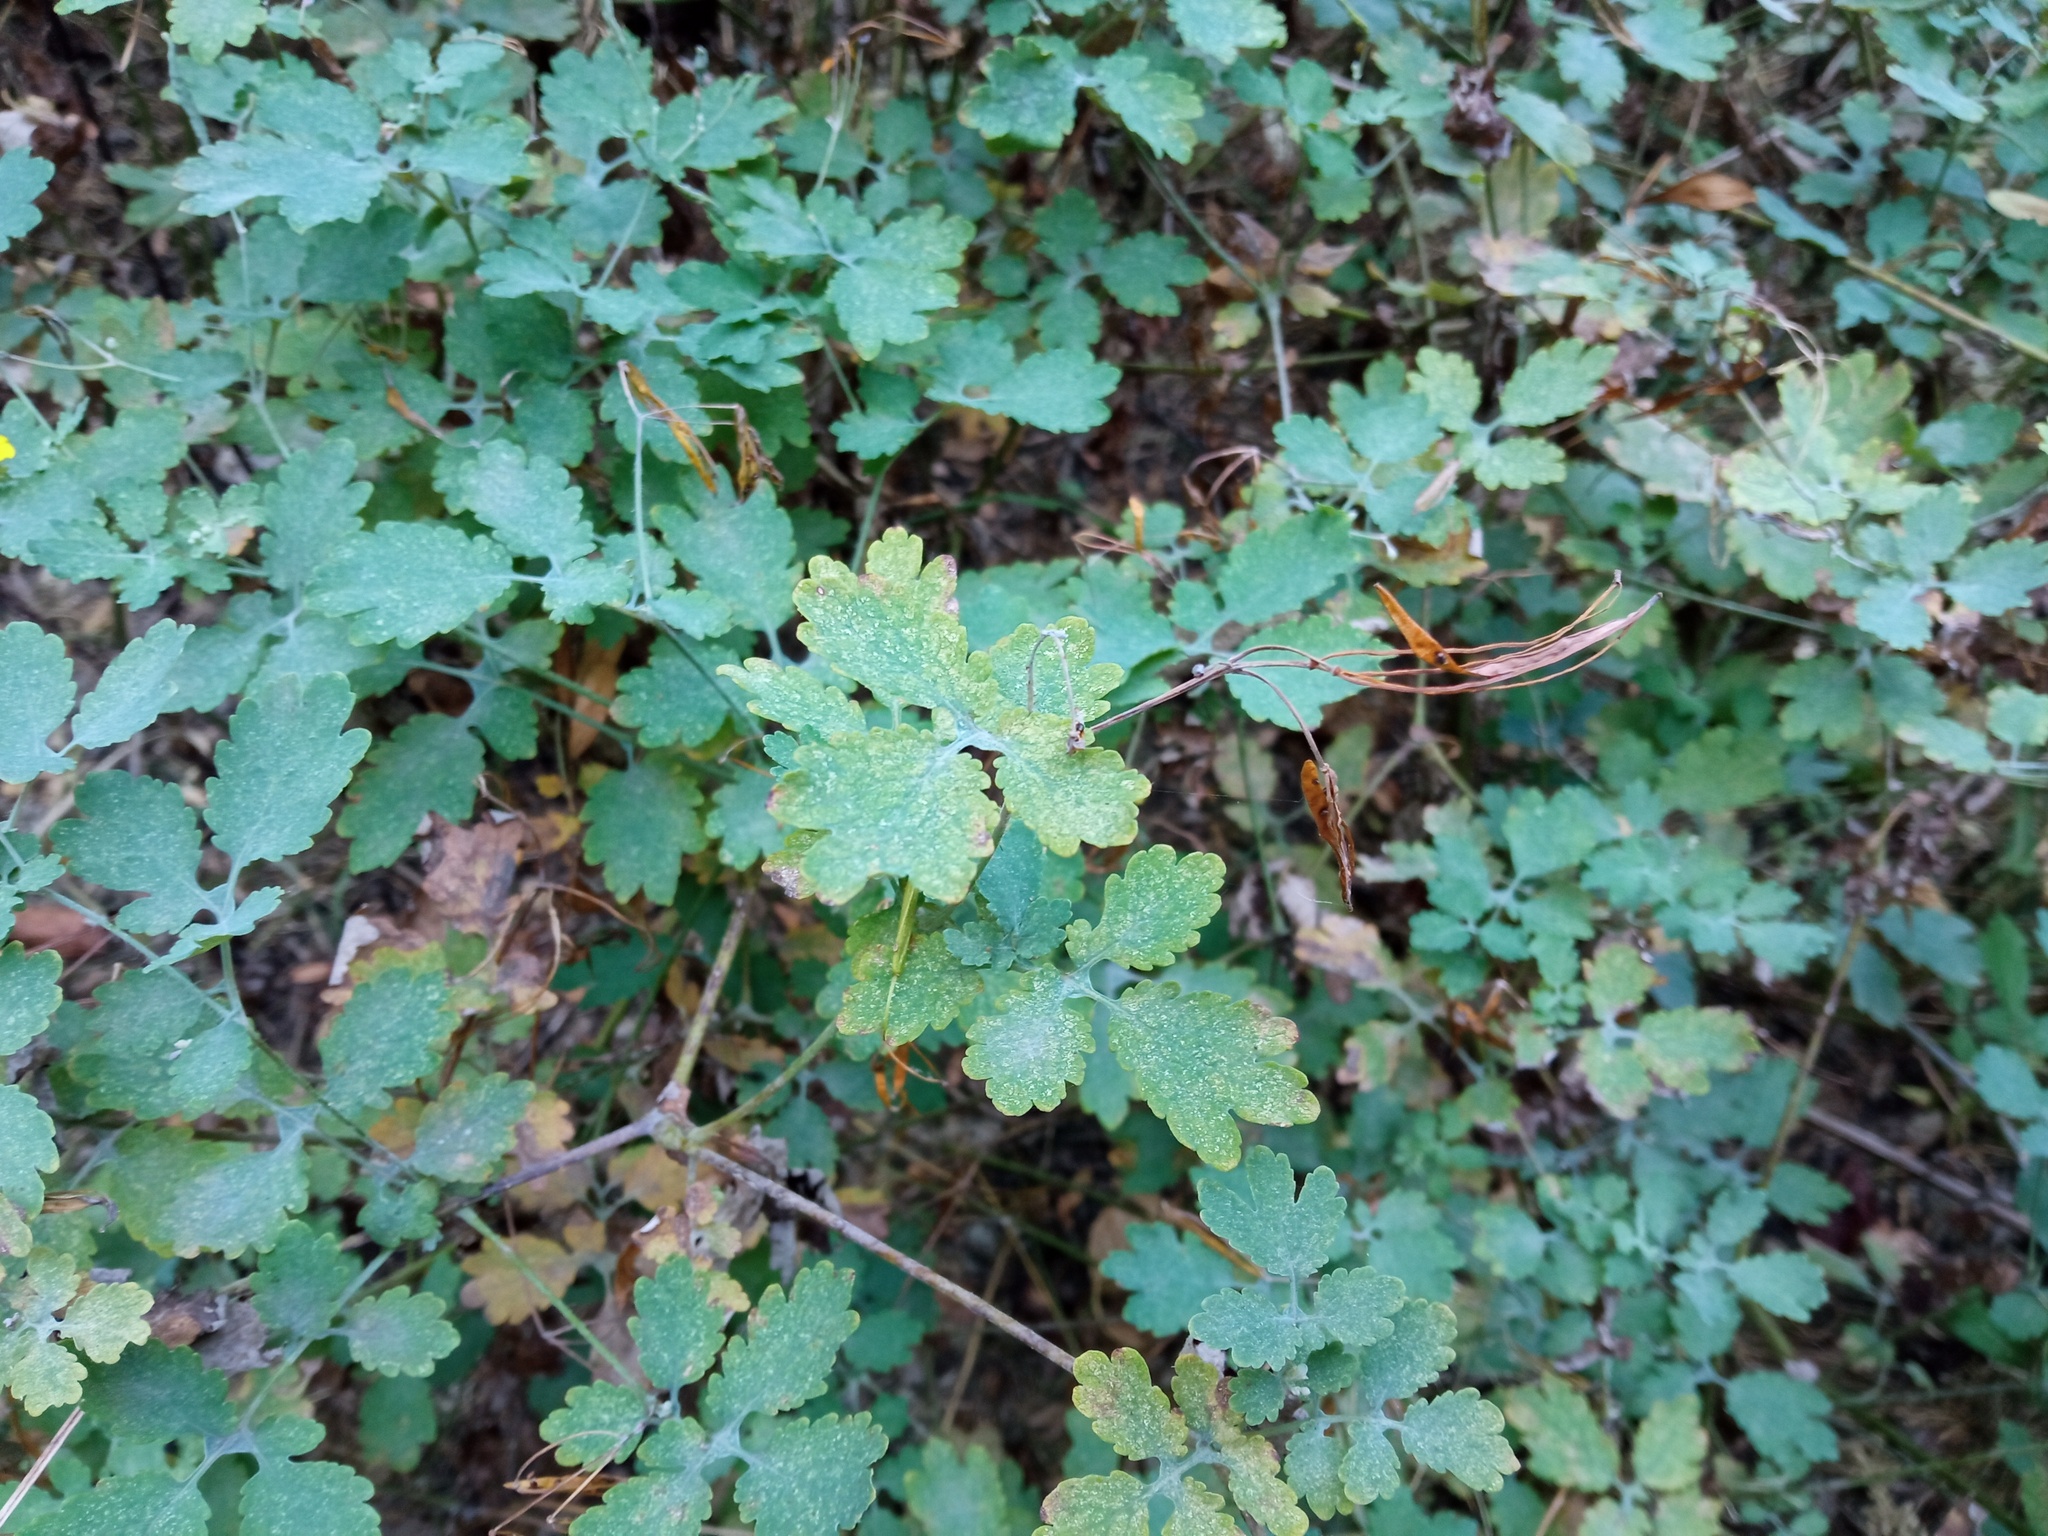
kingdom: Plantae
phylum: Tracheophyta
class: Magnoliopsida
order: Ranunculales
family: Papaveraceae
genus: Chelidonium
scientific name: Chelidonium majus
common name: Greater celandine
